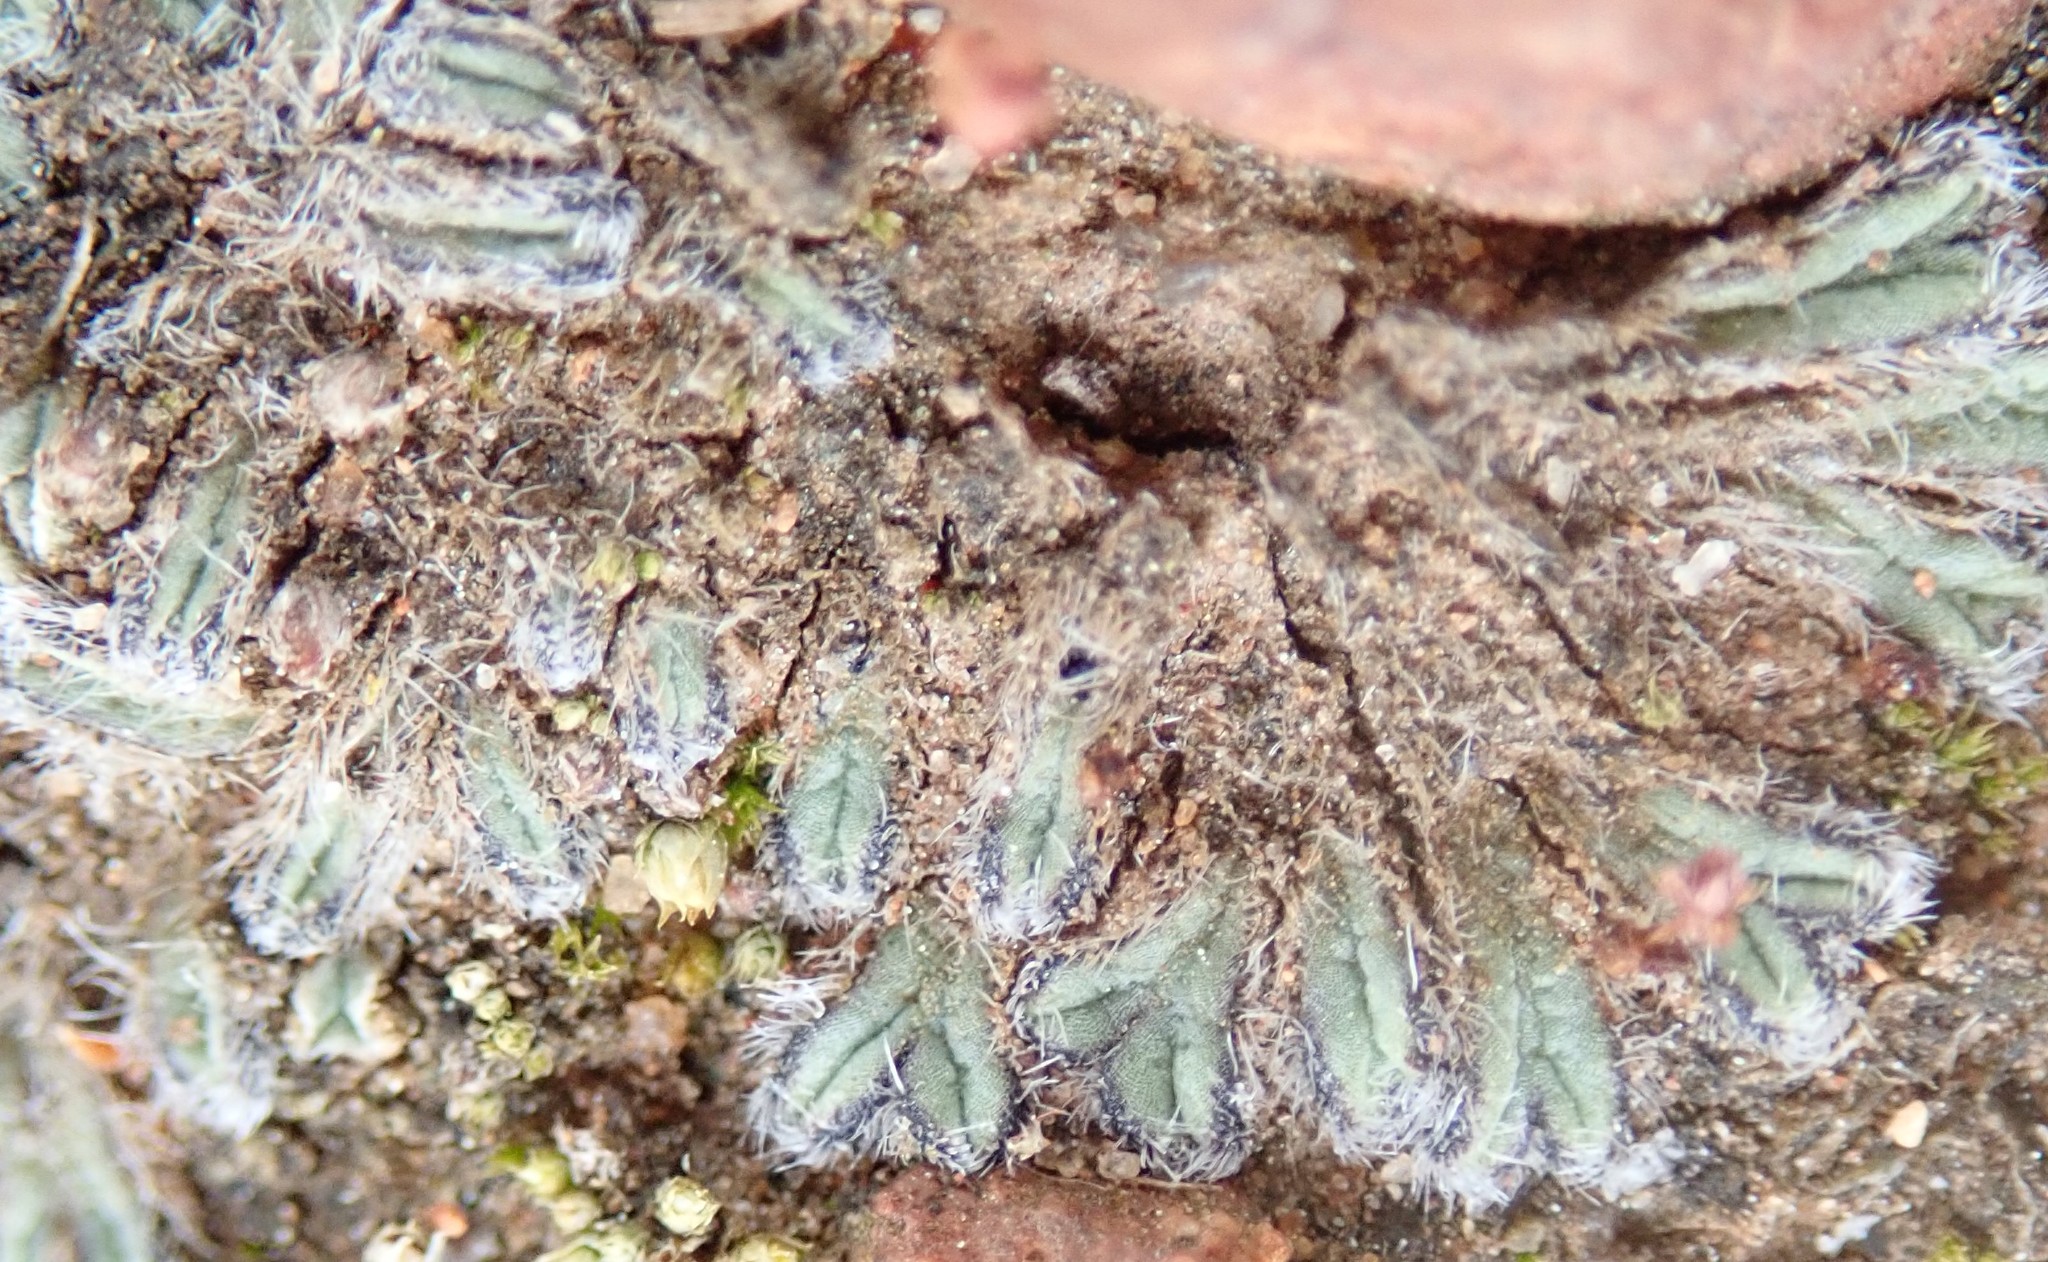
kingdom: Plantae
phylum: Marchantiophyta
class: Marchantiopsida
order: Marchantiales
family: Ricciaceae
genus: Riccia
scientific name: Riccia trichocarpa
